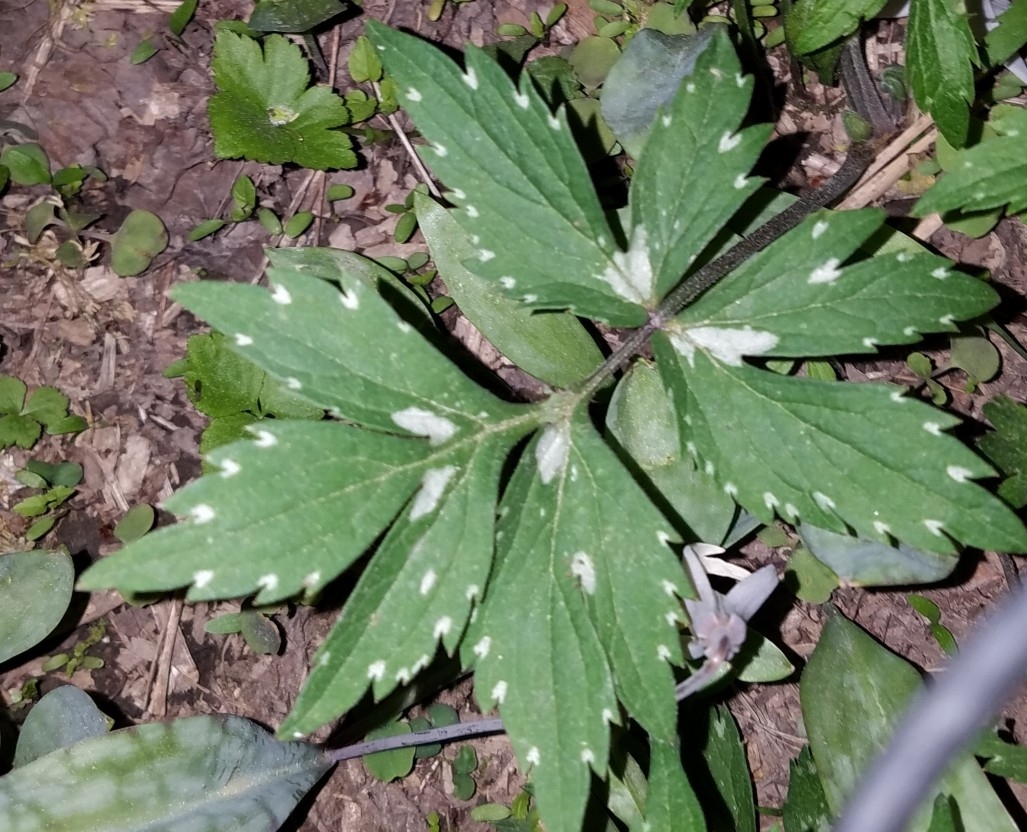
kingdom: Plantae
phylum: Tracheophyta
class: Magnoliopsida
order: Boraginales
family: Hydrophyllaceae
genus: Hydrophyllum
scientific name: Hydrophyllum virginianum
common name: Virginia waterleaf
